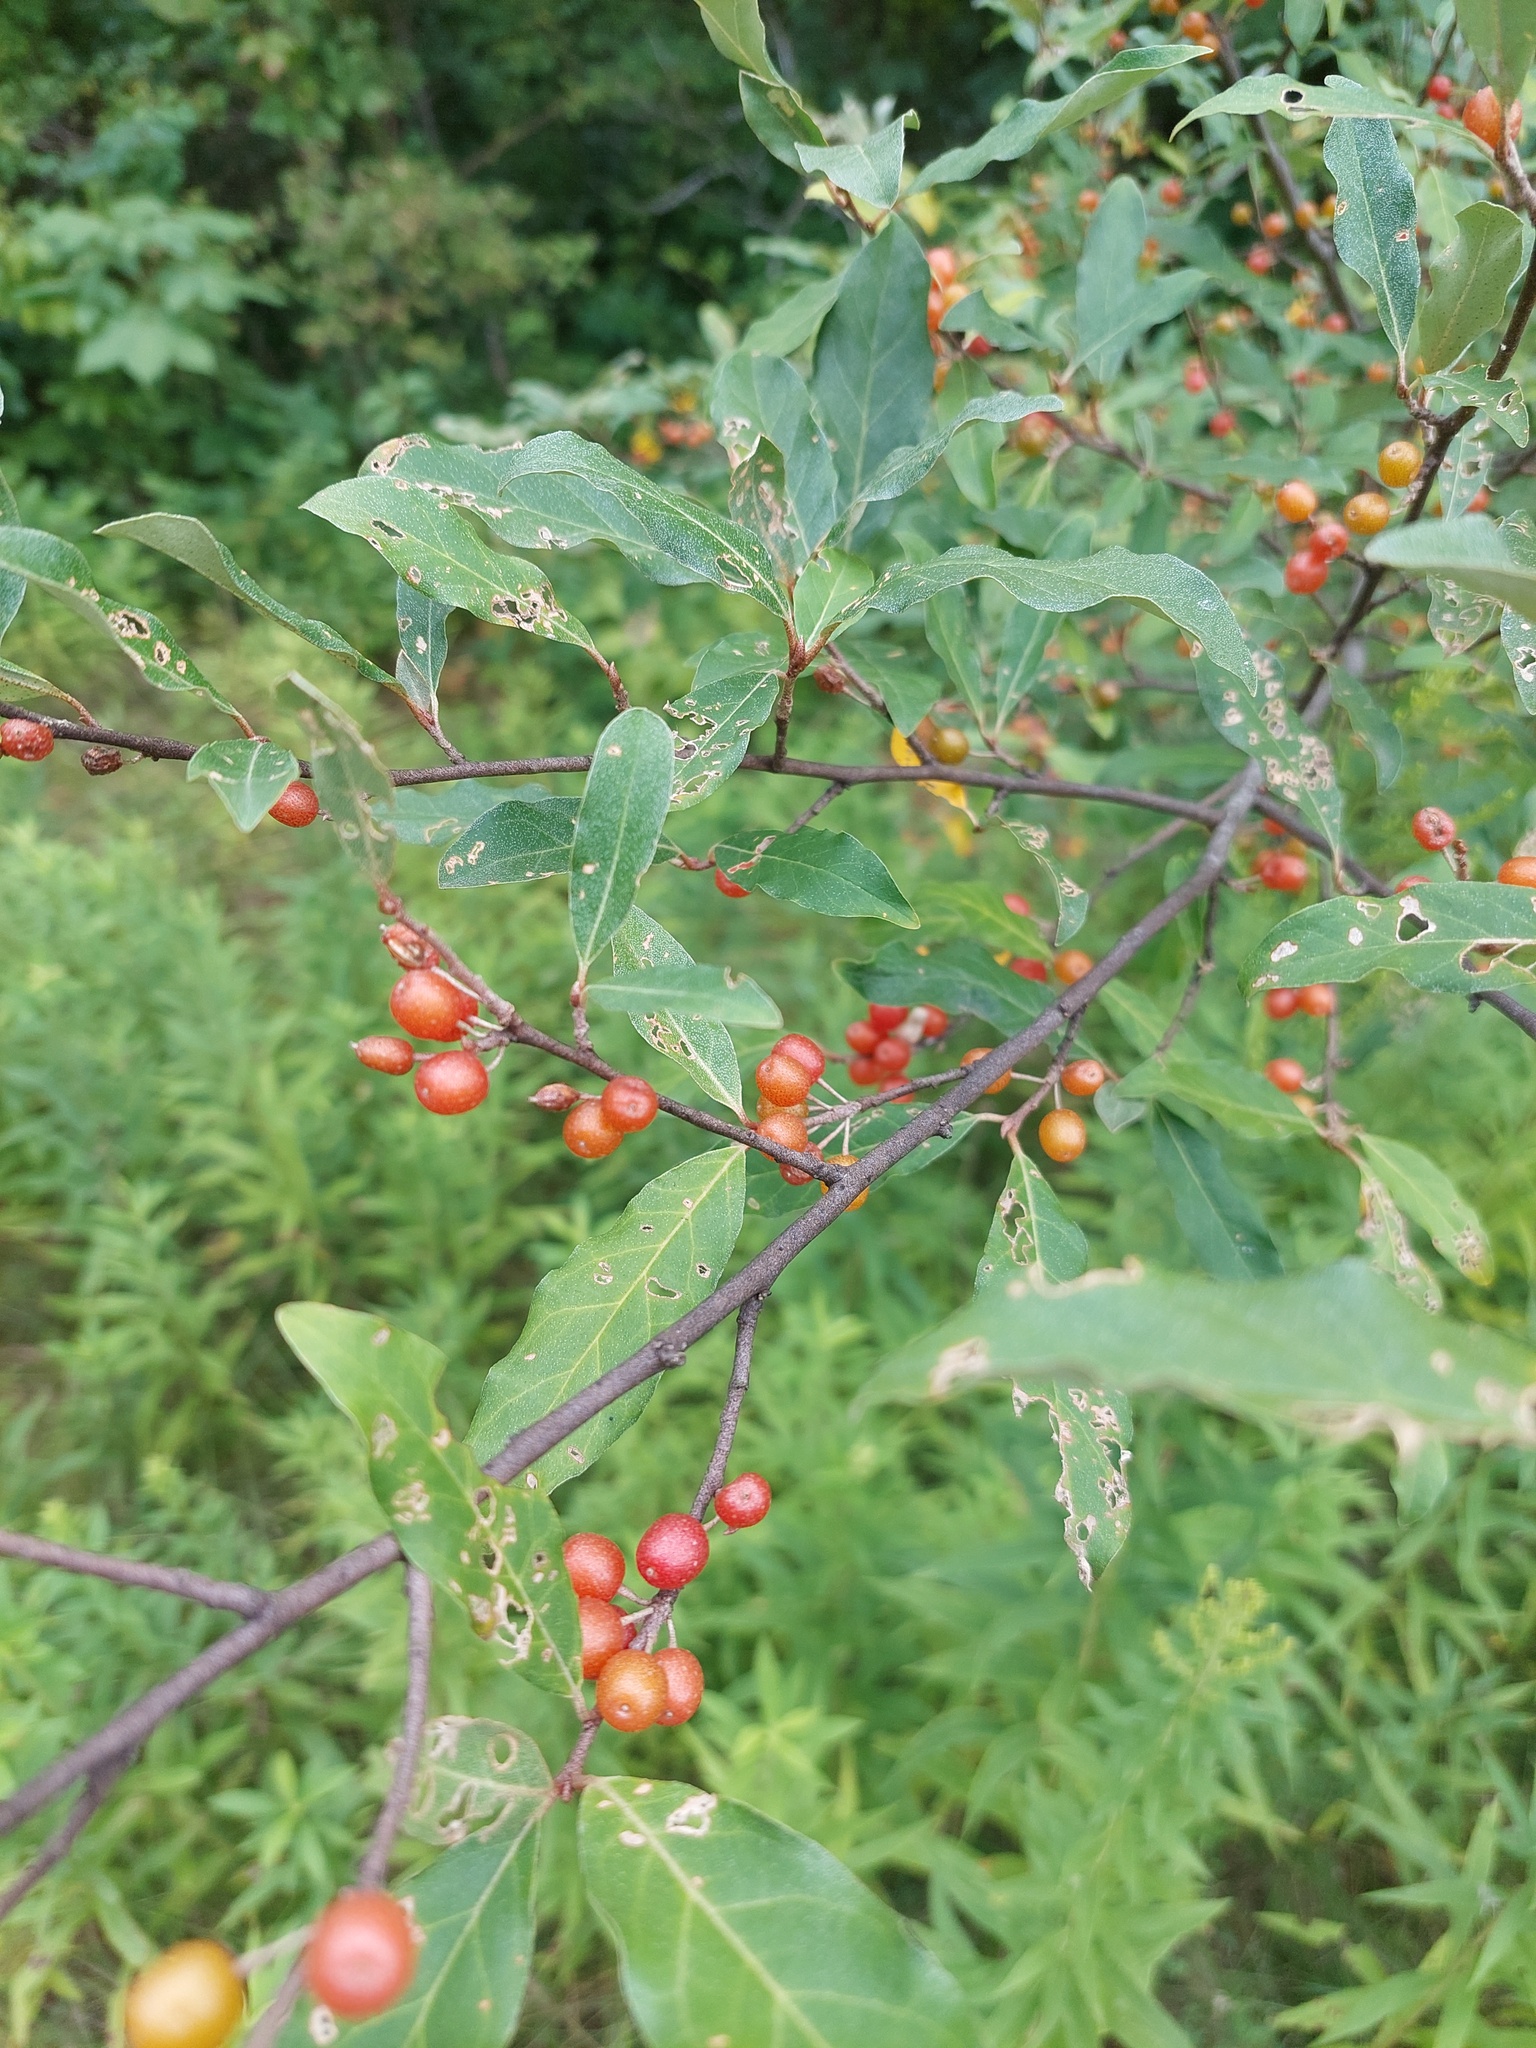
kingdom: Plantae
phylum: Tracheophyta
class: Magnoliopsida
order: Rosales
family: Elaeagnaceae
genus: Elaeagnus
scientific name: Elaeagnus umbellata
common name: Autumn olive
